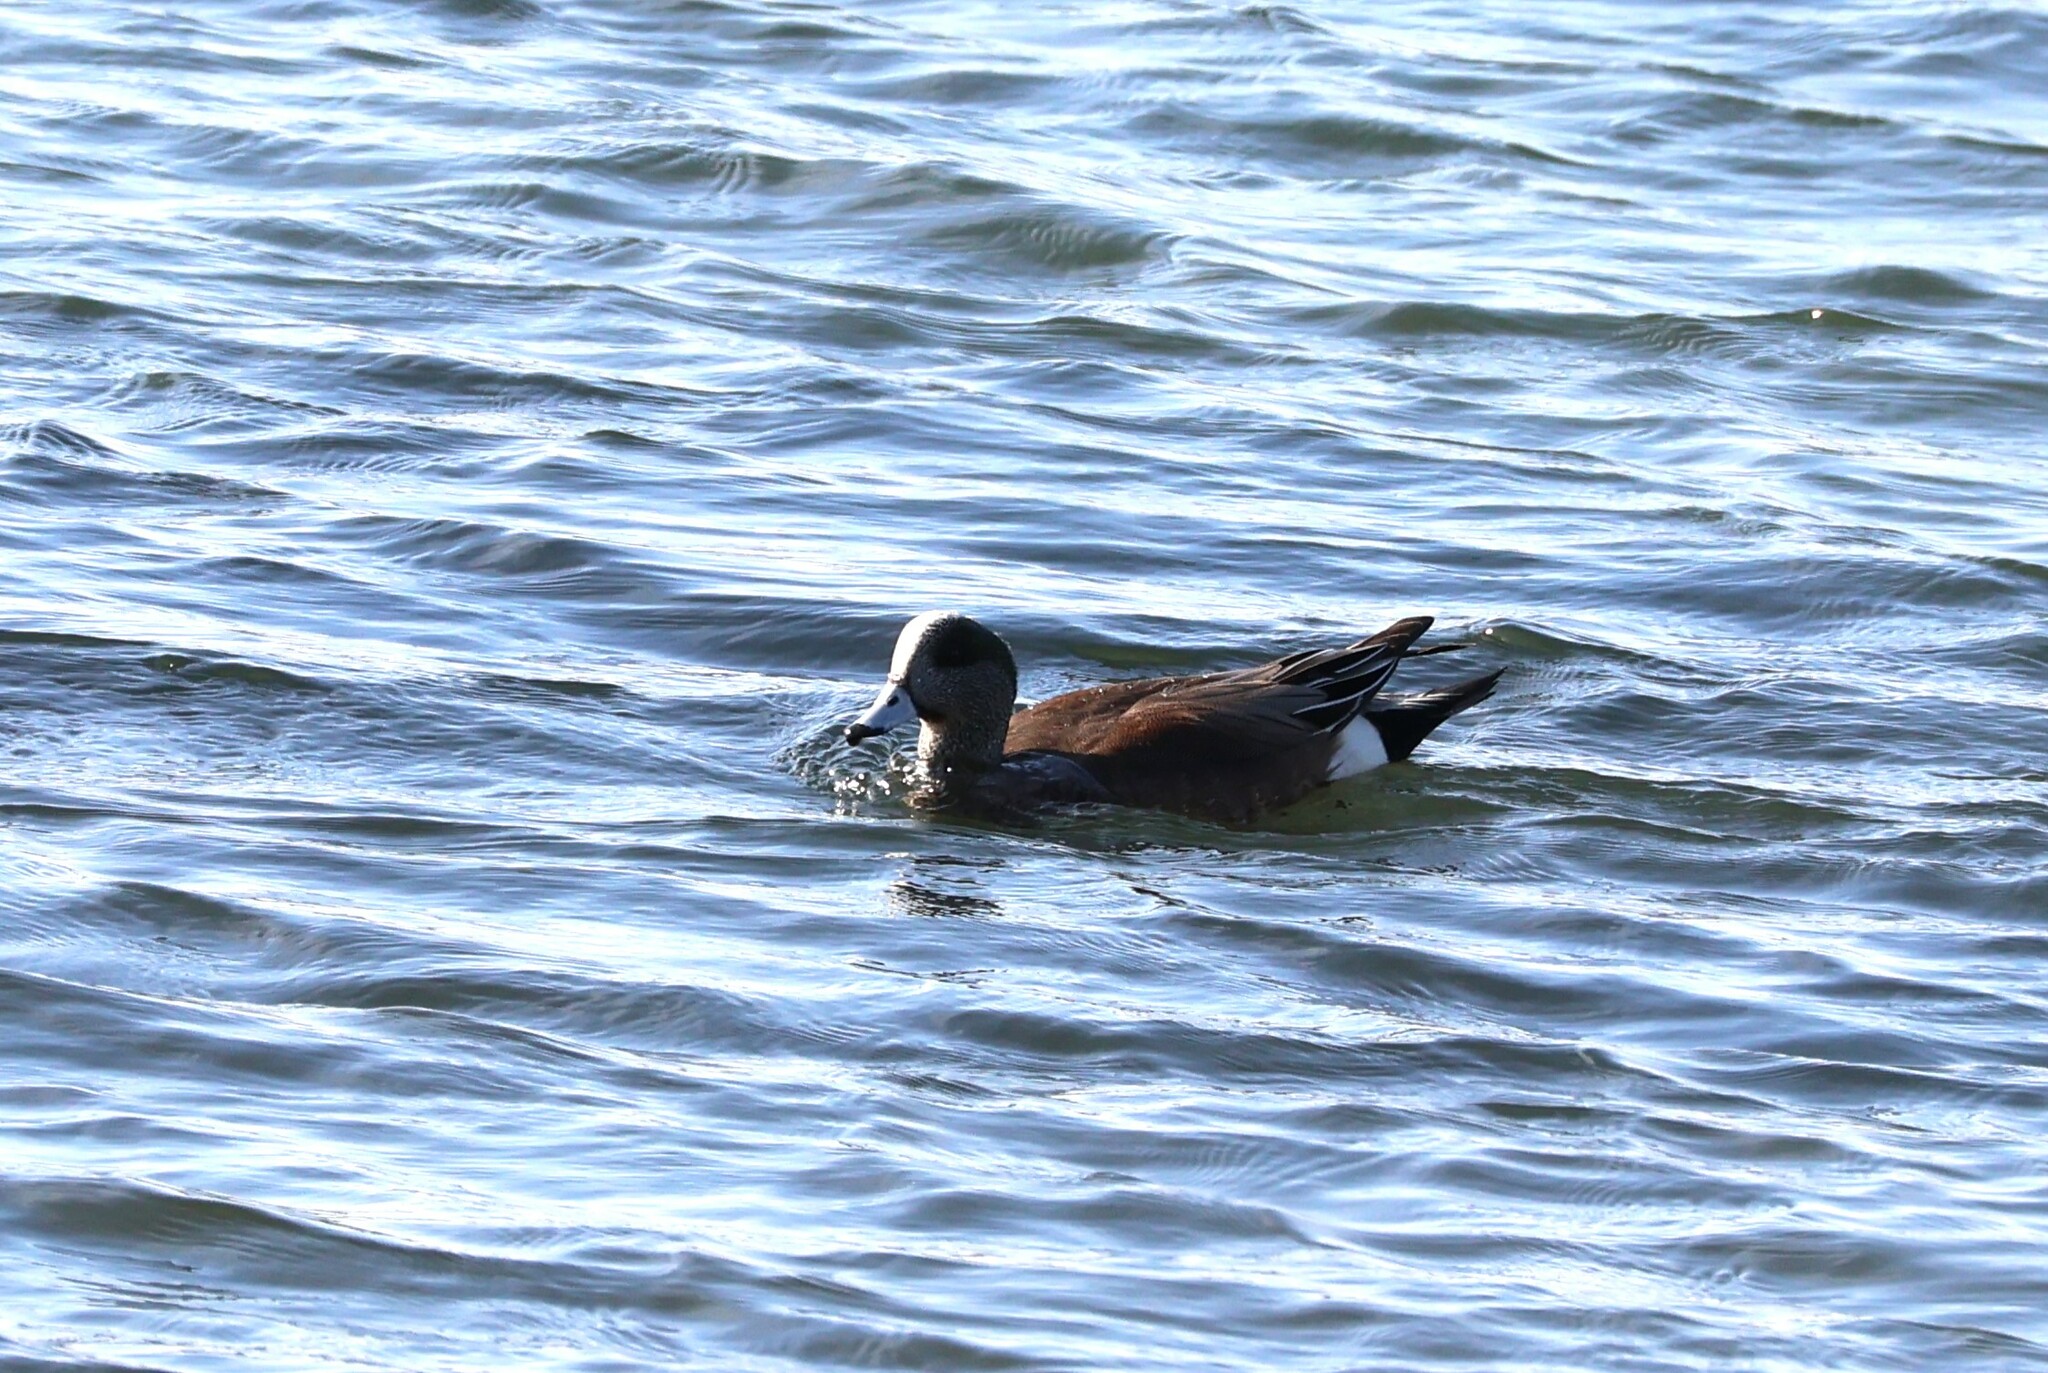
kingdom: Animalia
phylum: Chordata
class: Aves
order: Anseriformes
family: Anatidae
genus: Mareca
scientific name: Mareca americana
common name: American wigeon
